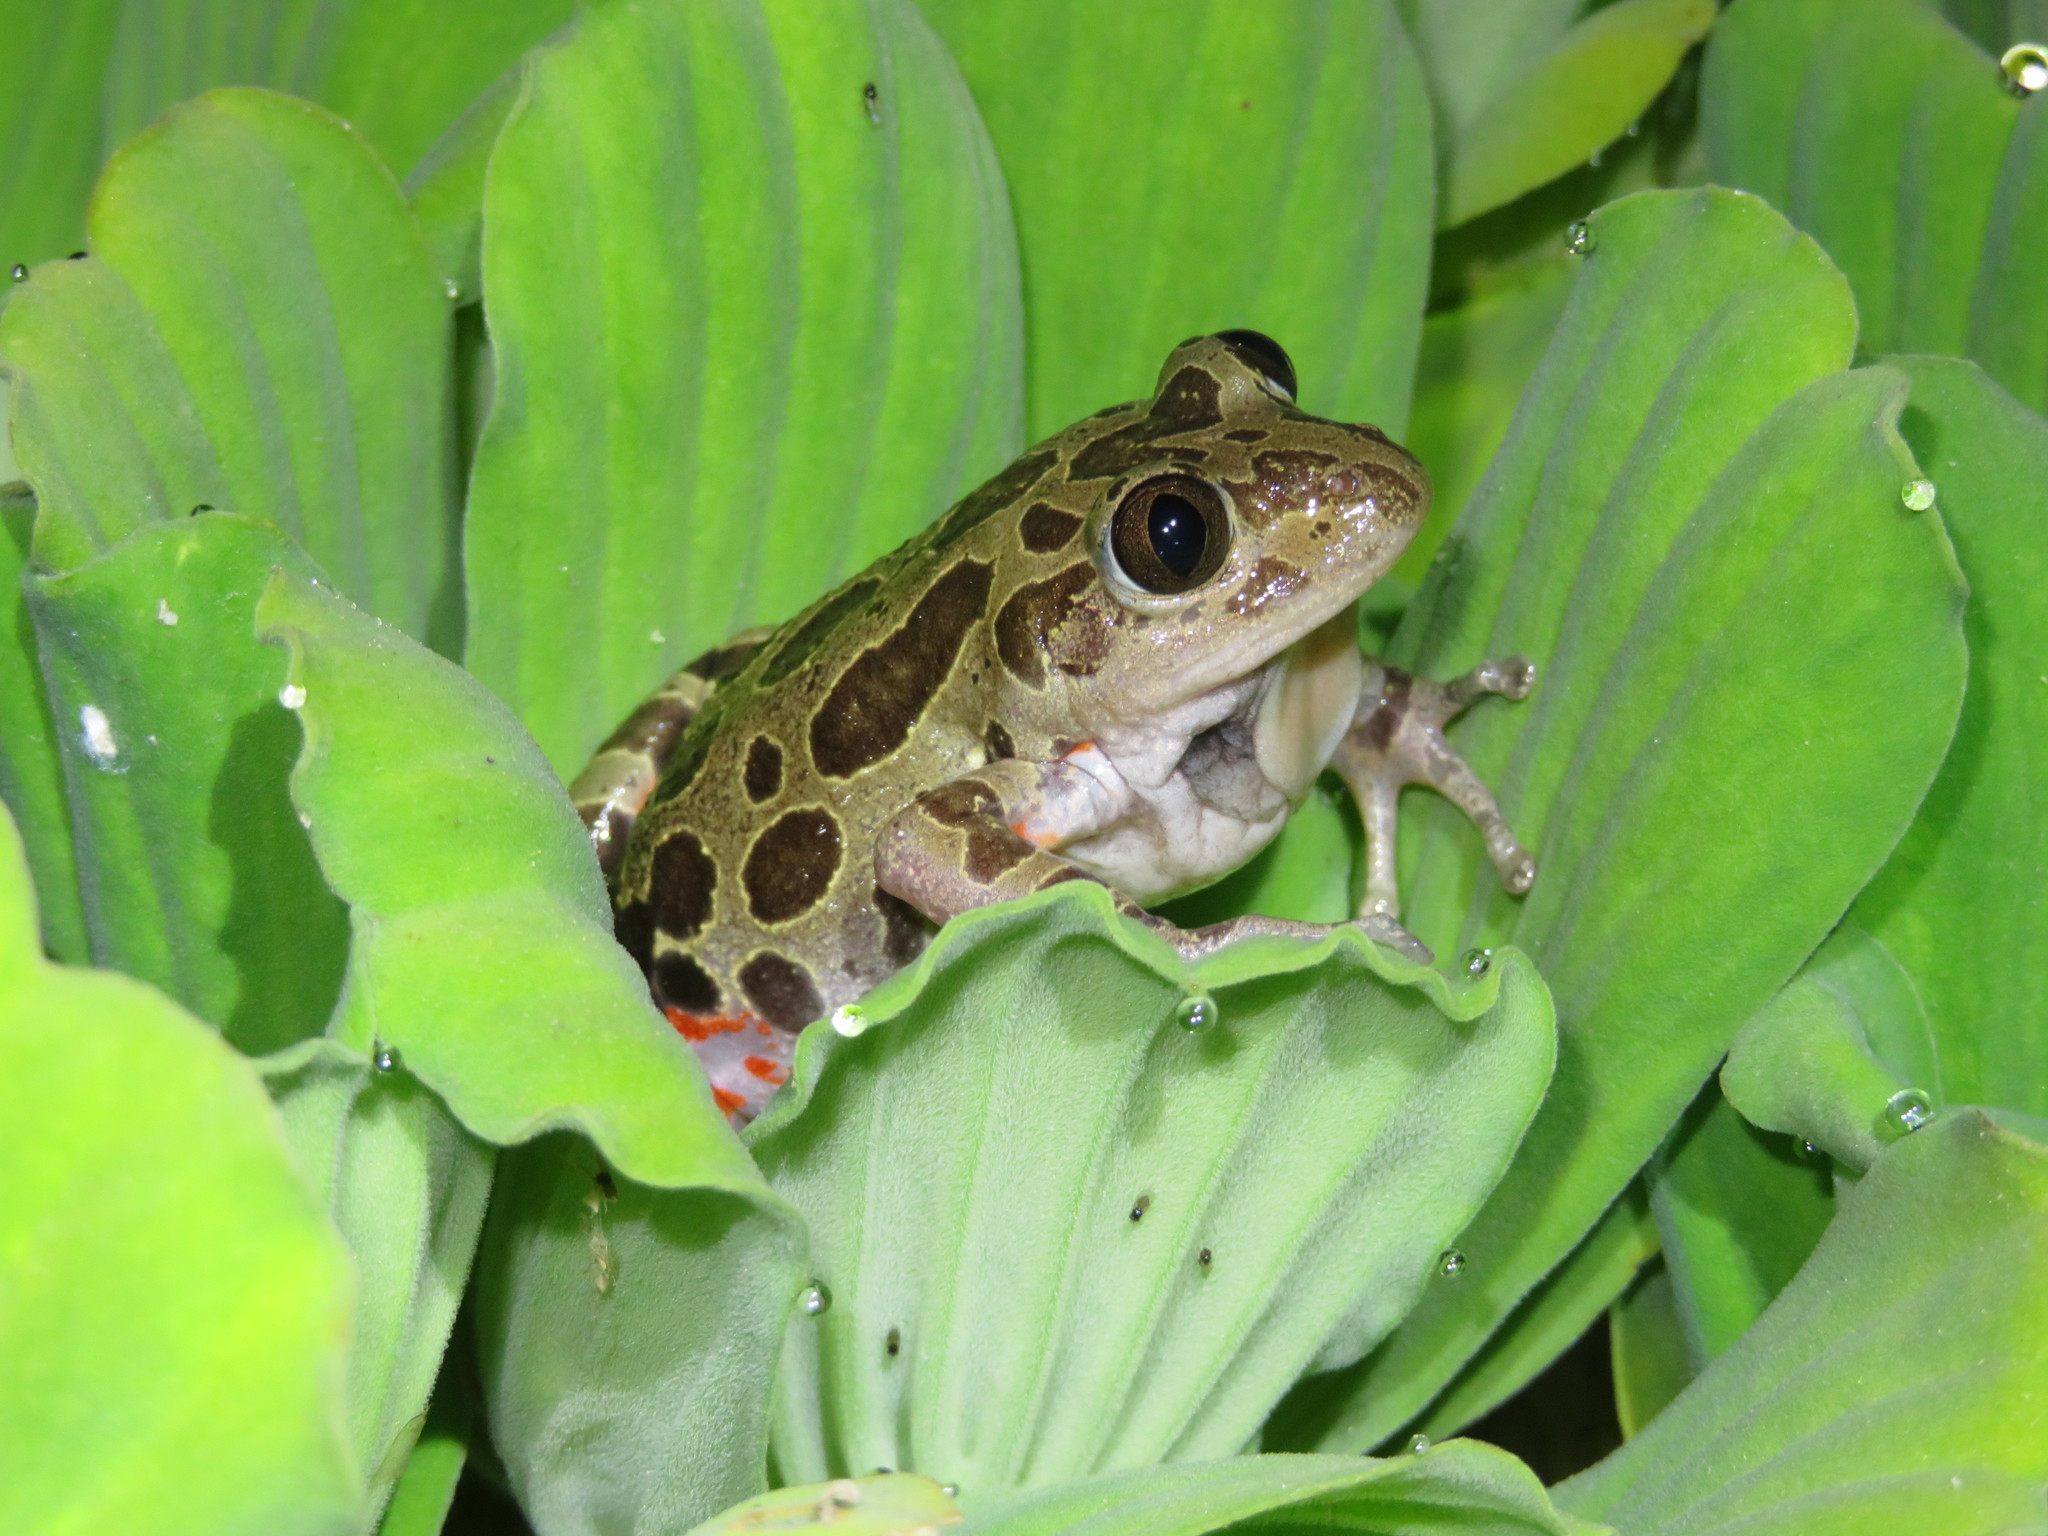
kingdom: Animalia
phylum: Chordata
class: Amphibia
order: Anura
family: Hyperoliidae
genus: Phlyctimantis
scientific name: Phlyctimantis maculatus
